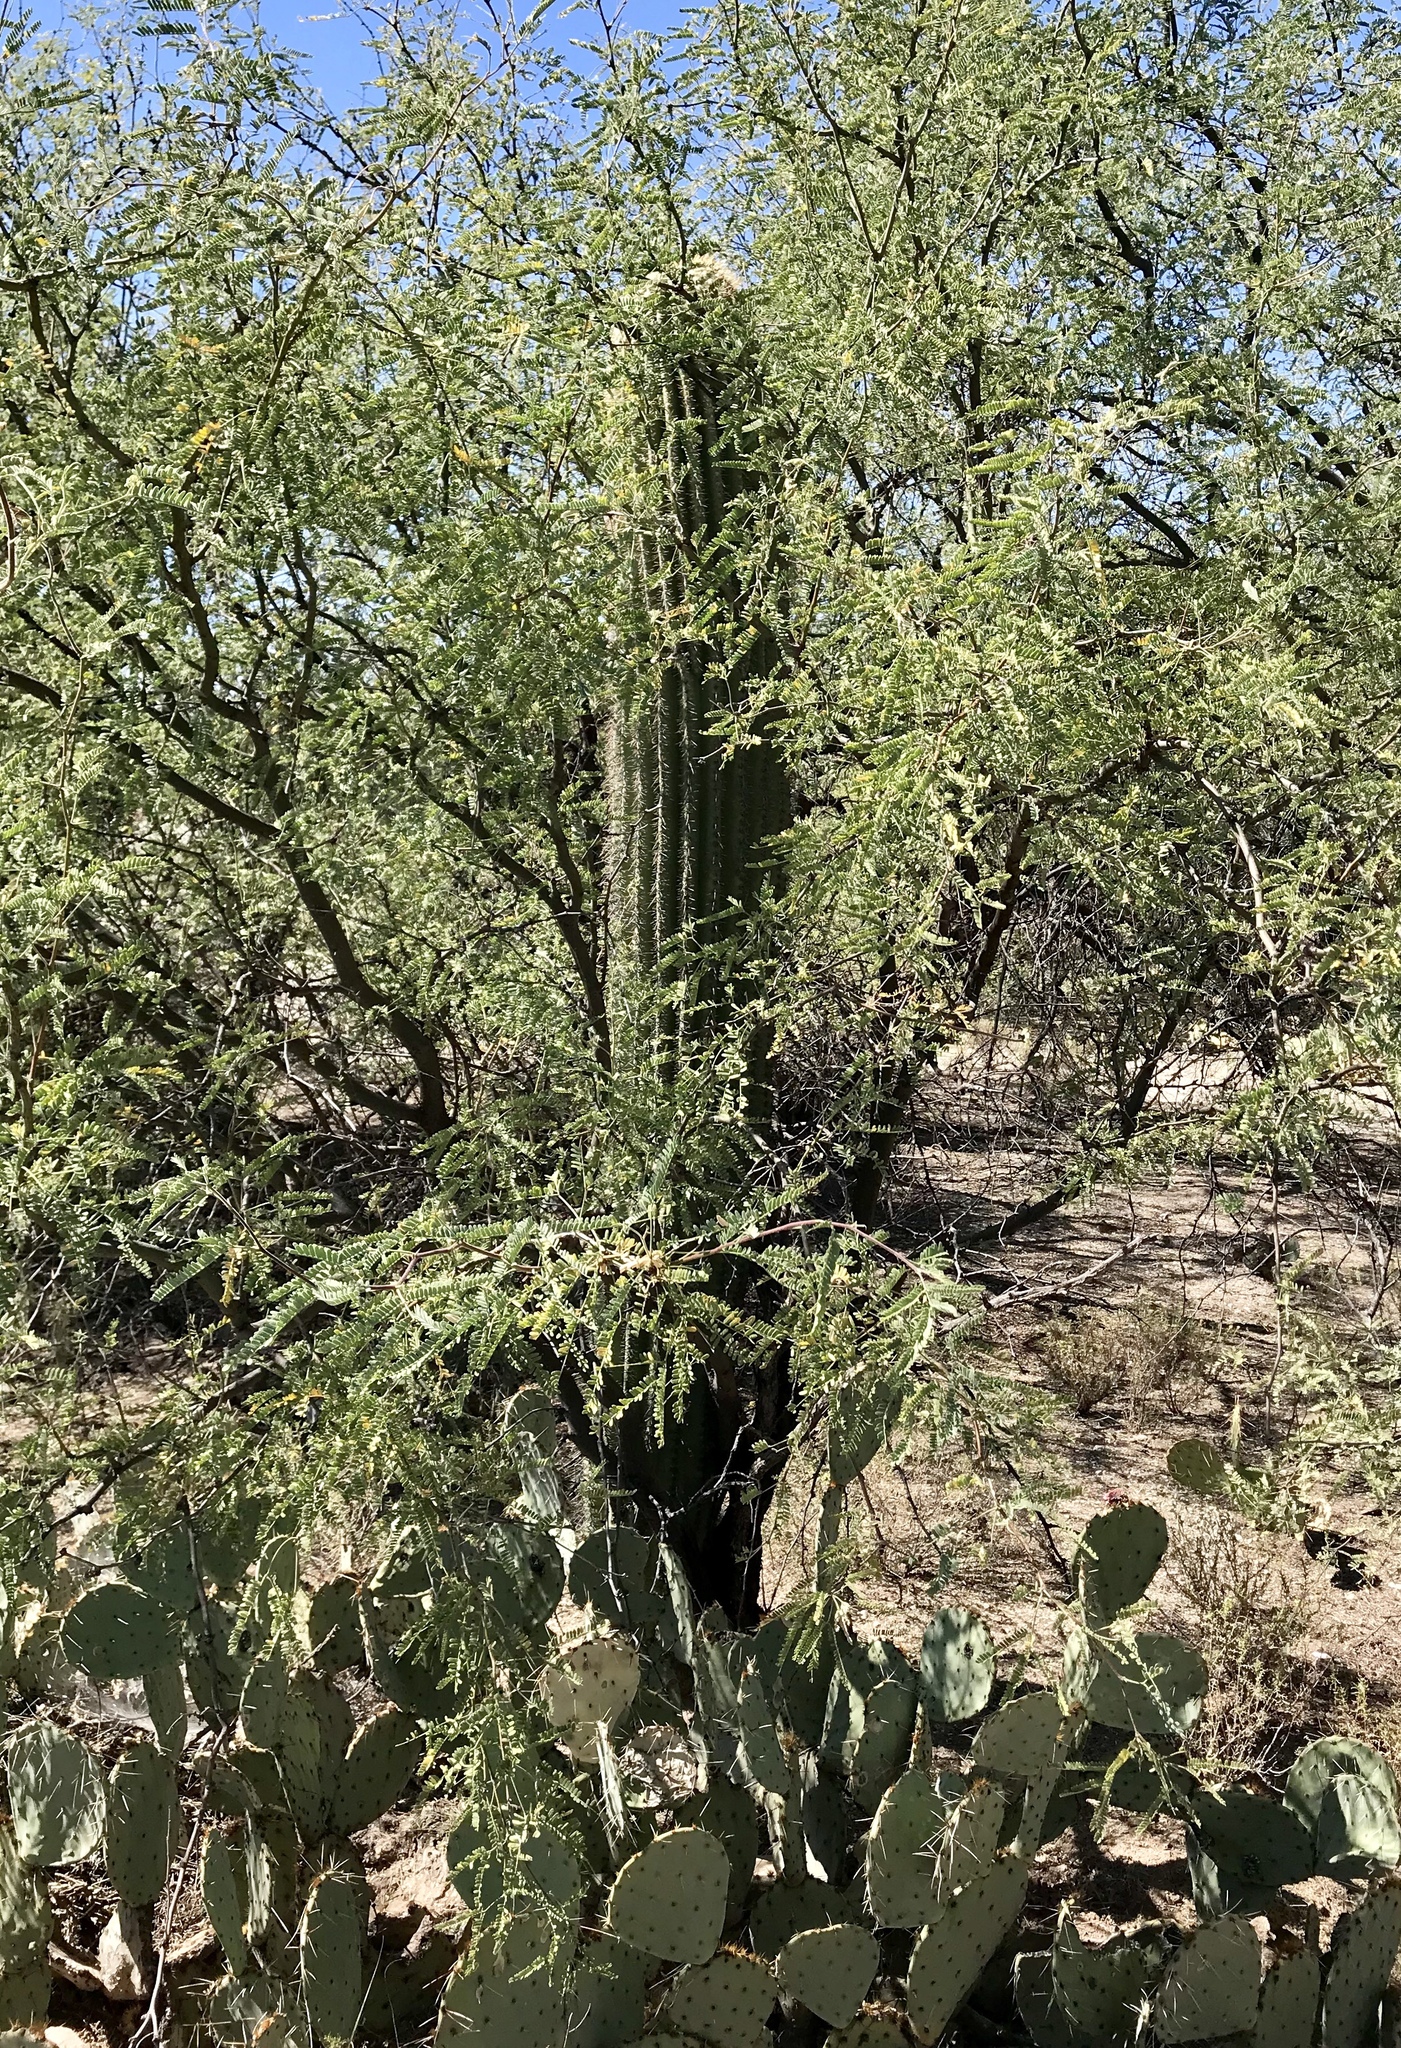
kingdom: Plantae
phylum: Tracheophyta
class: Magnoliopsida
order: Caryophyllales
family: Cactaceae
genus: Carnegiea
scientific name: Carnegiea gigantea
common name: Saguaro
